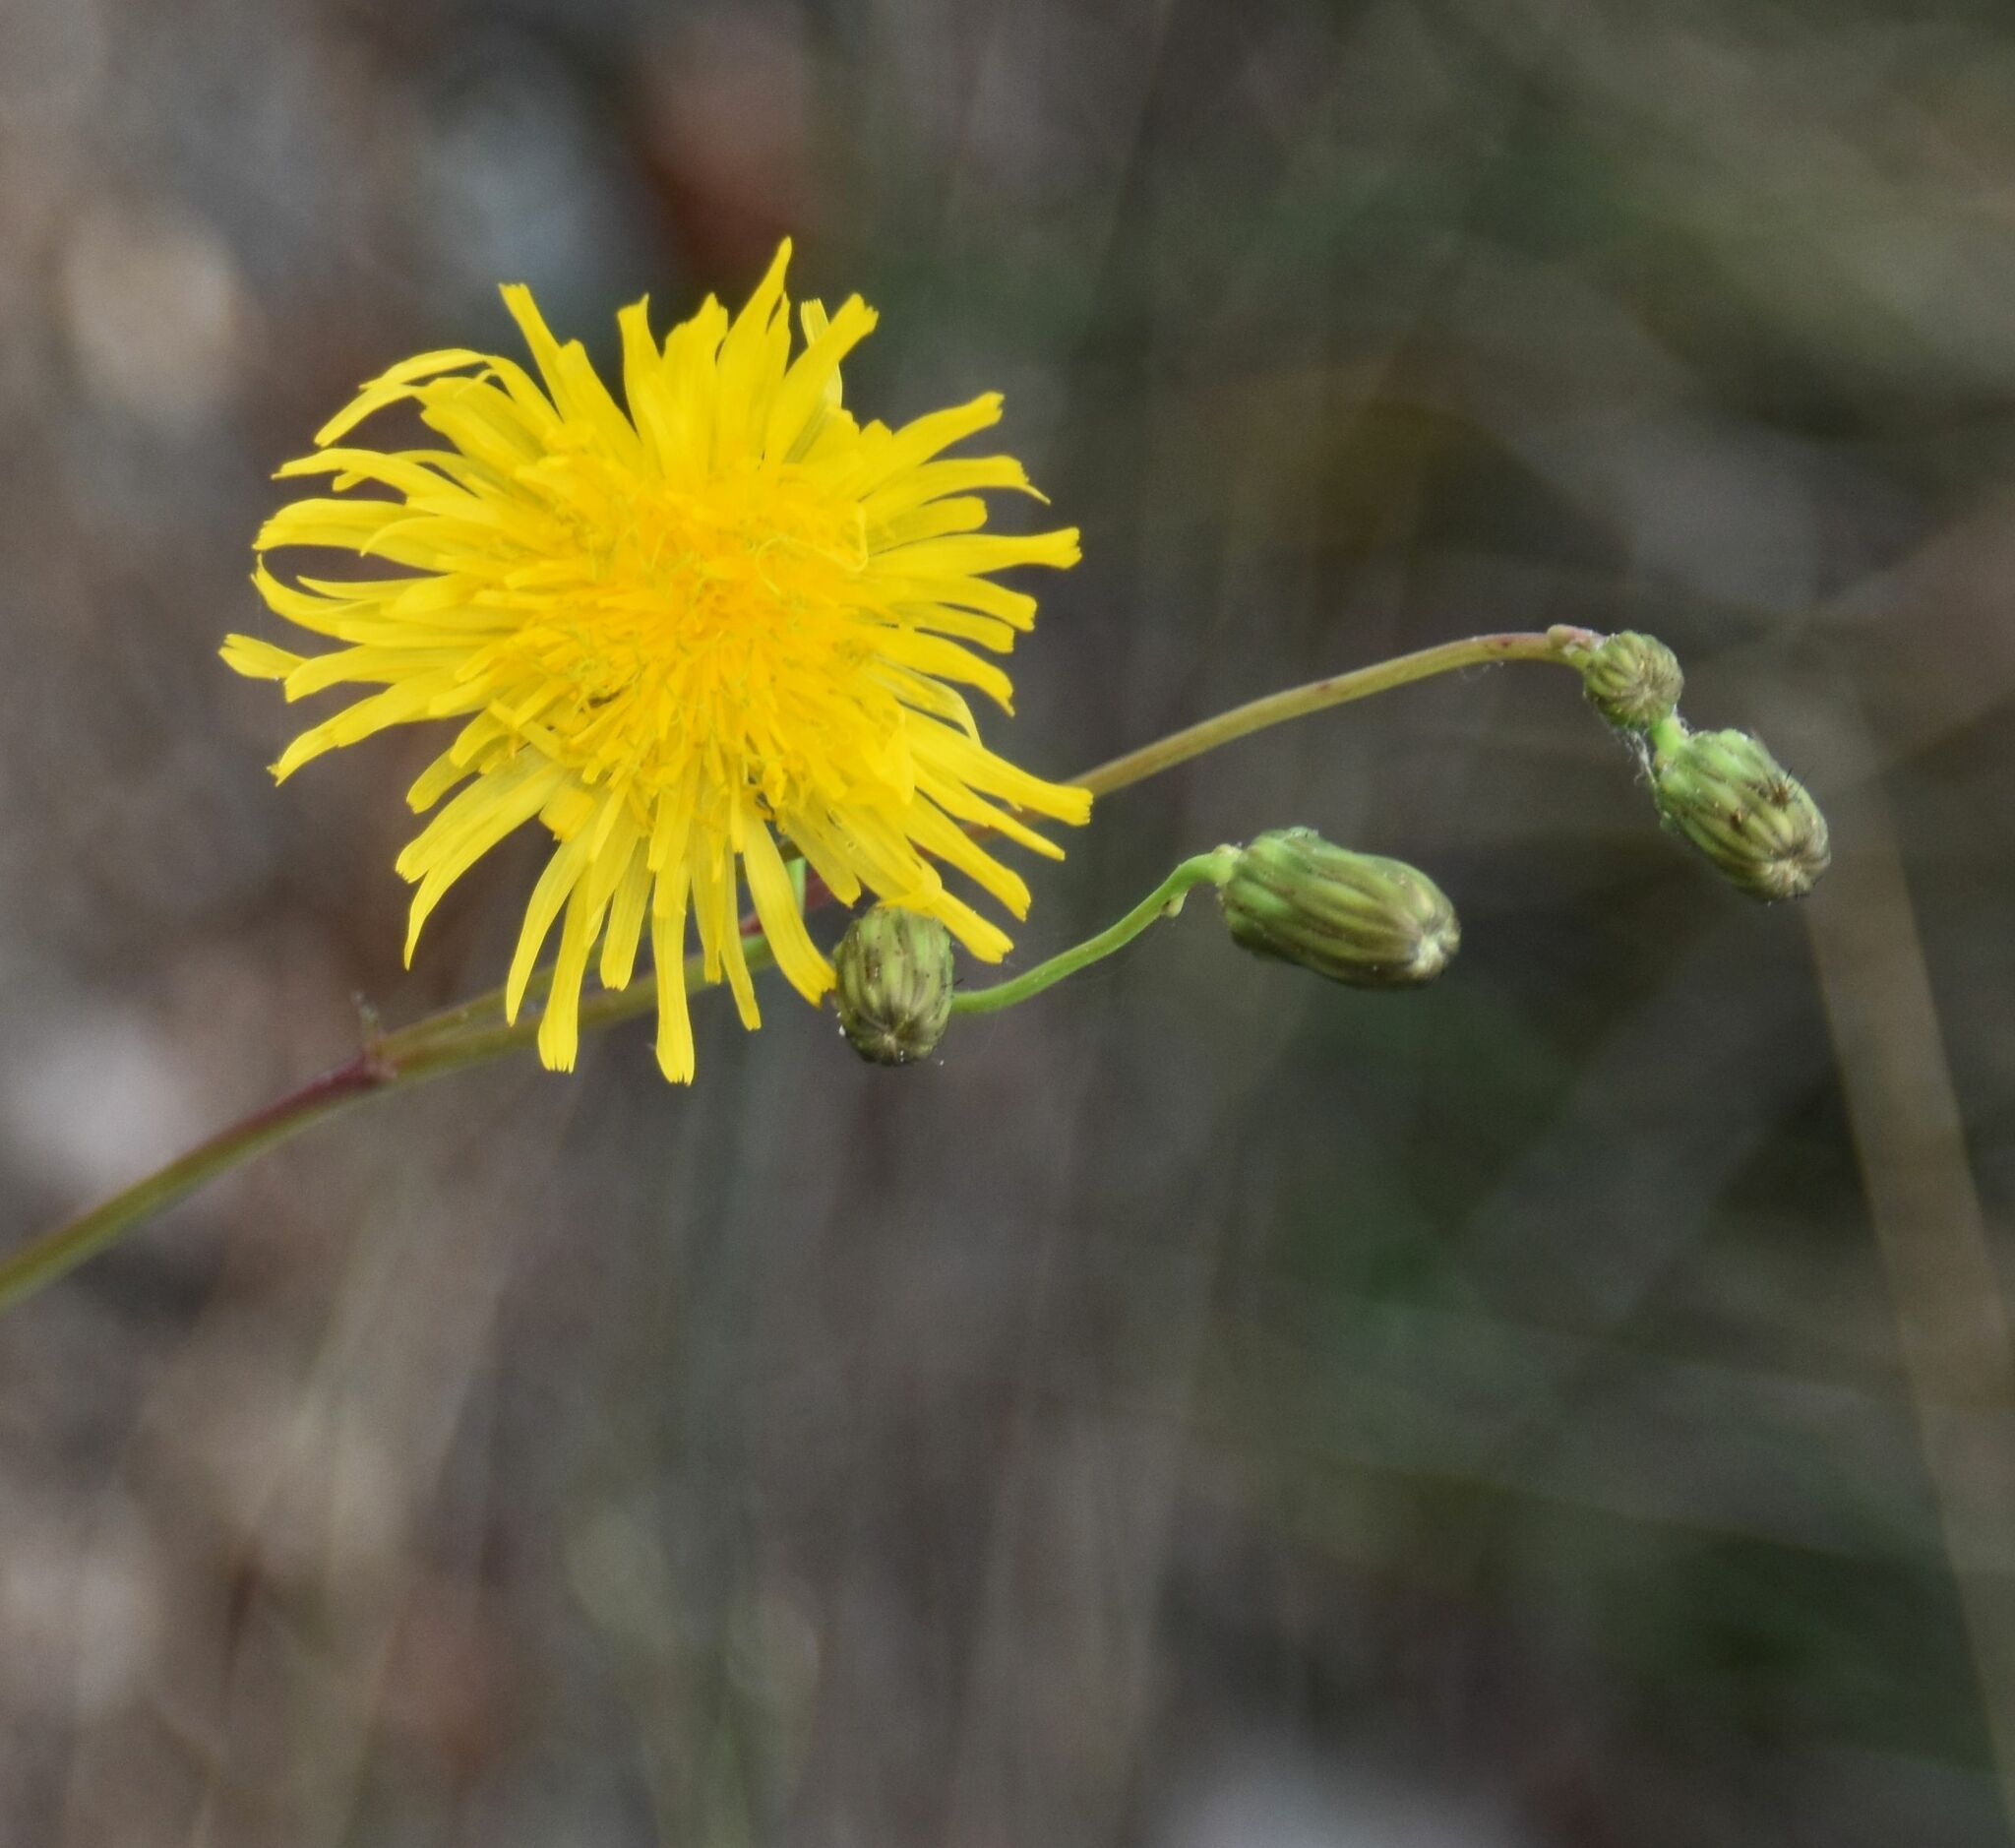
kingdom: Plantae
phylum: Tracheophyta
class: Magnoliopsida
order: Asterales
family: Asteraceae
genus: Sonchus
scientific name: Sonchus arvensis
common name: Perennial sow-thistle
